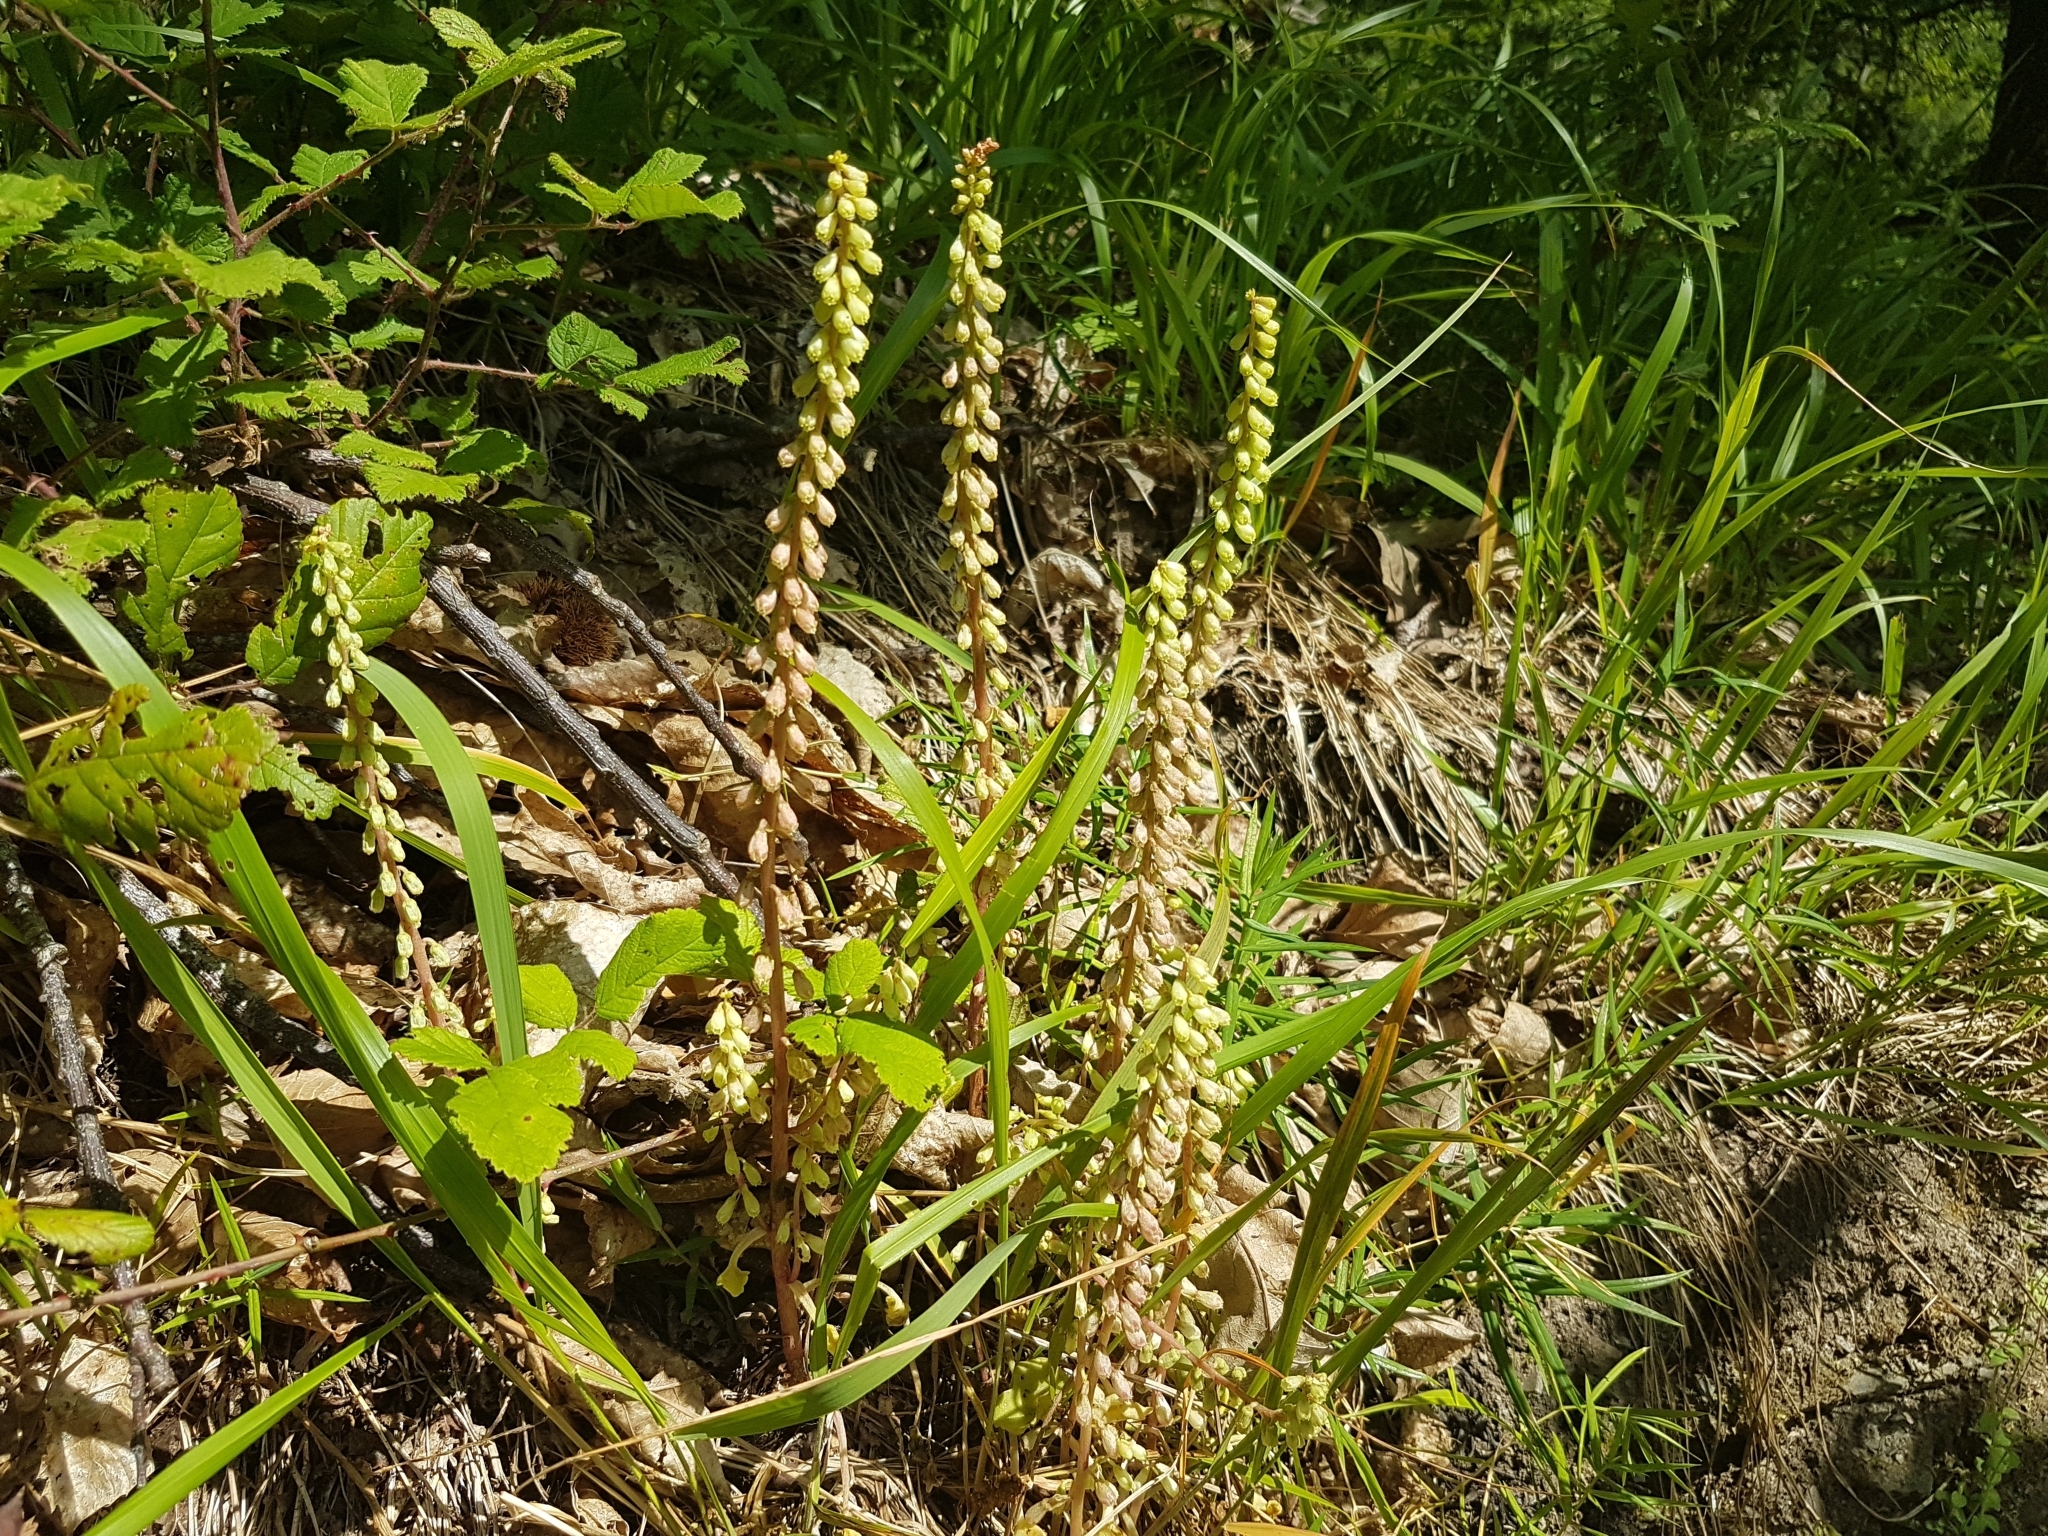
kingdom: Plantae
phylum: Tracheophyta
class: Magnoliopsida
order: Saxifragales
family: Crassulaceae
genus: Umbilicus
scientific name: Umbilicus rupestris
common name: Navelwort
